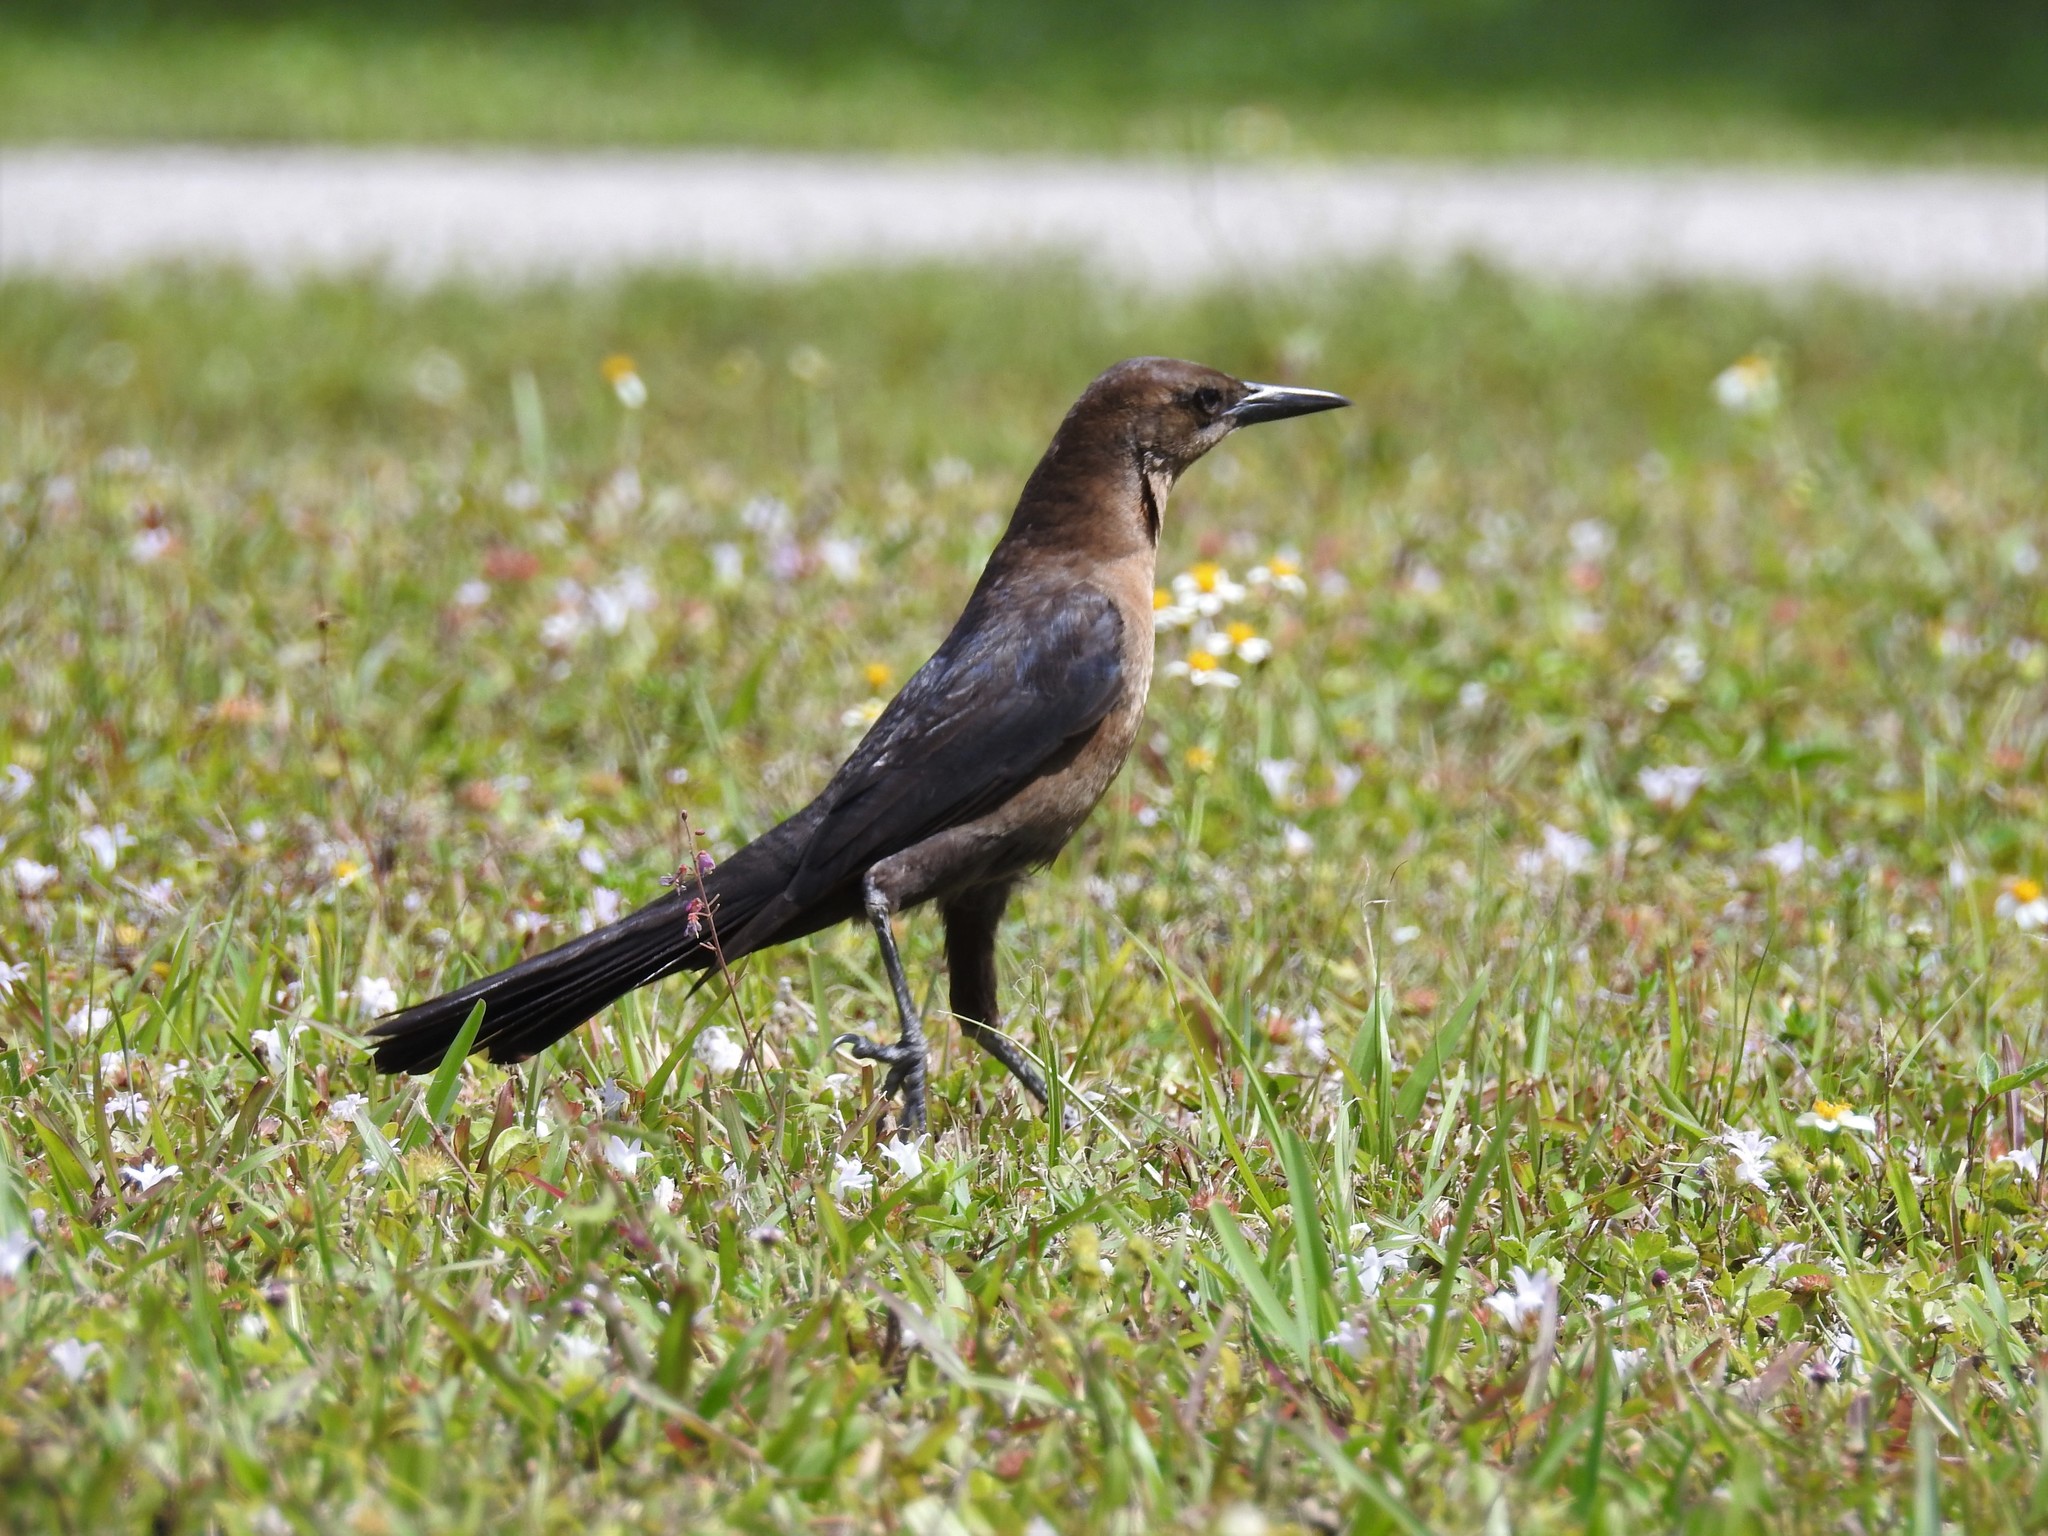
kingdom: Animalia
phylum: Chordata
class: Aves
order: Passeriformes
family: Icteridae
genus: Quiscalus
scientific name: Quiscalus major
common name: Boat-tailed grackle
